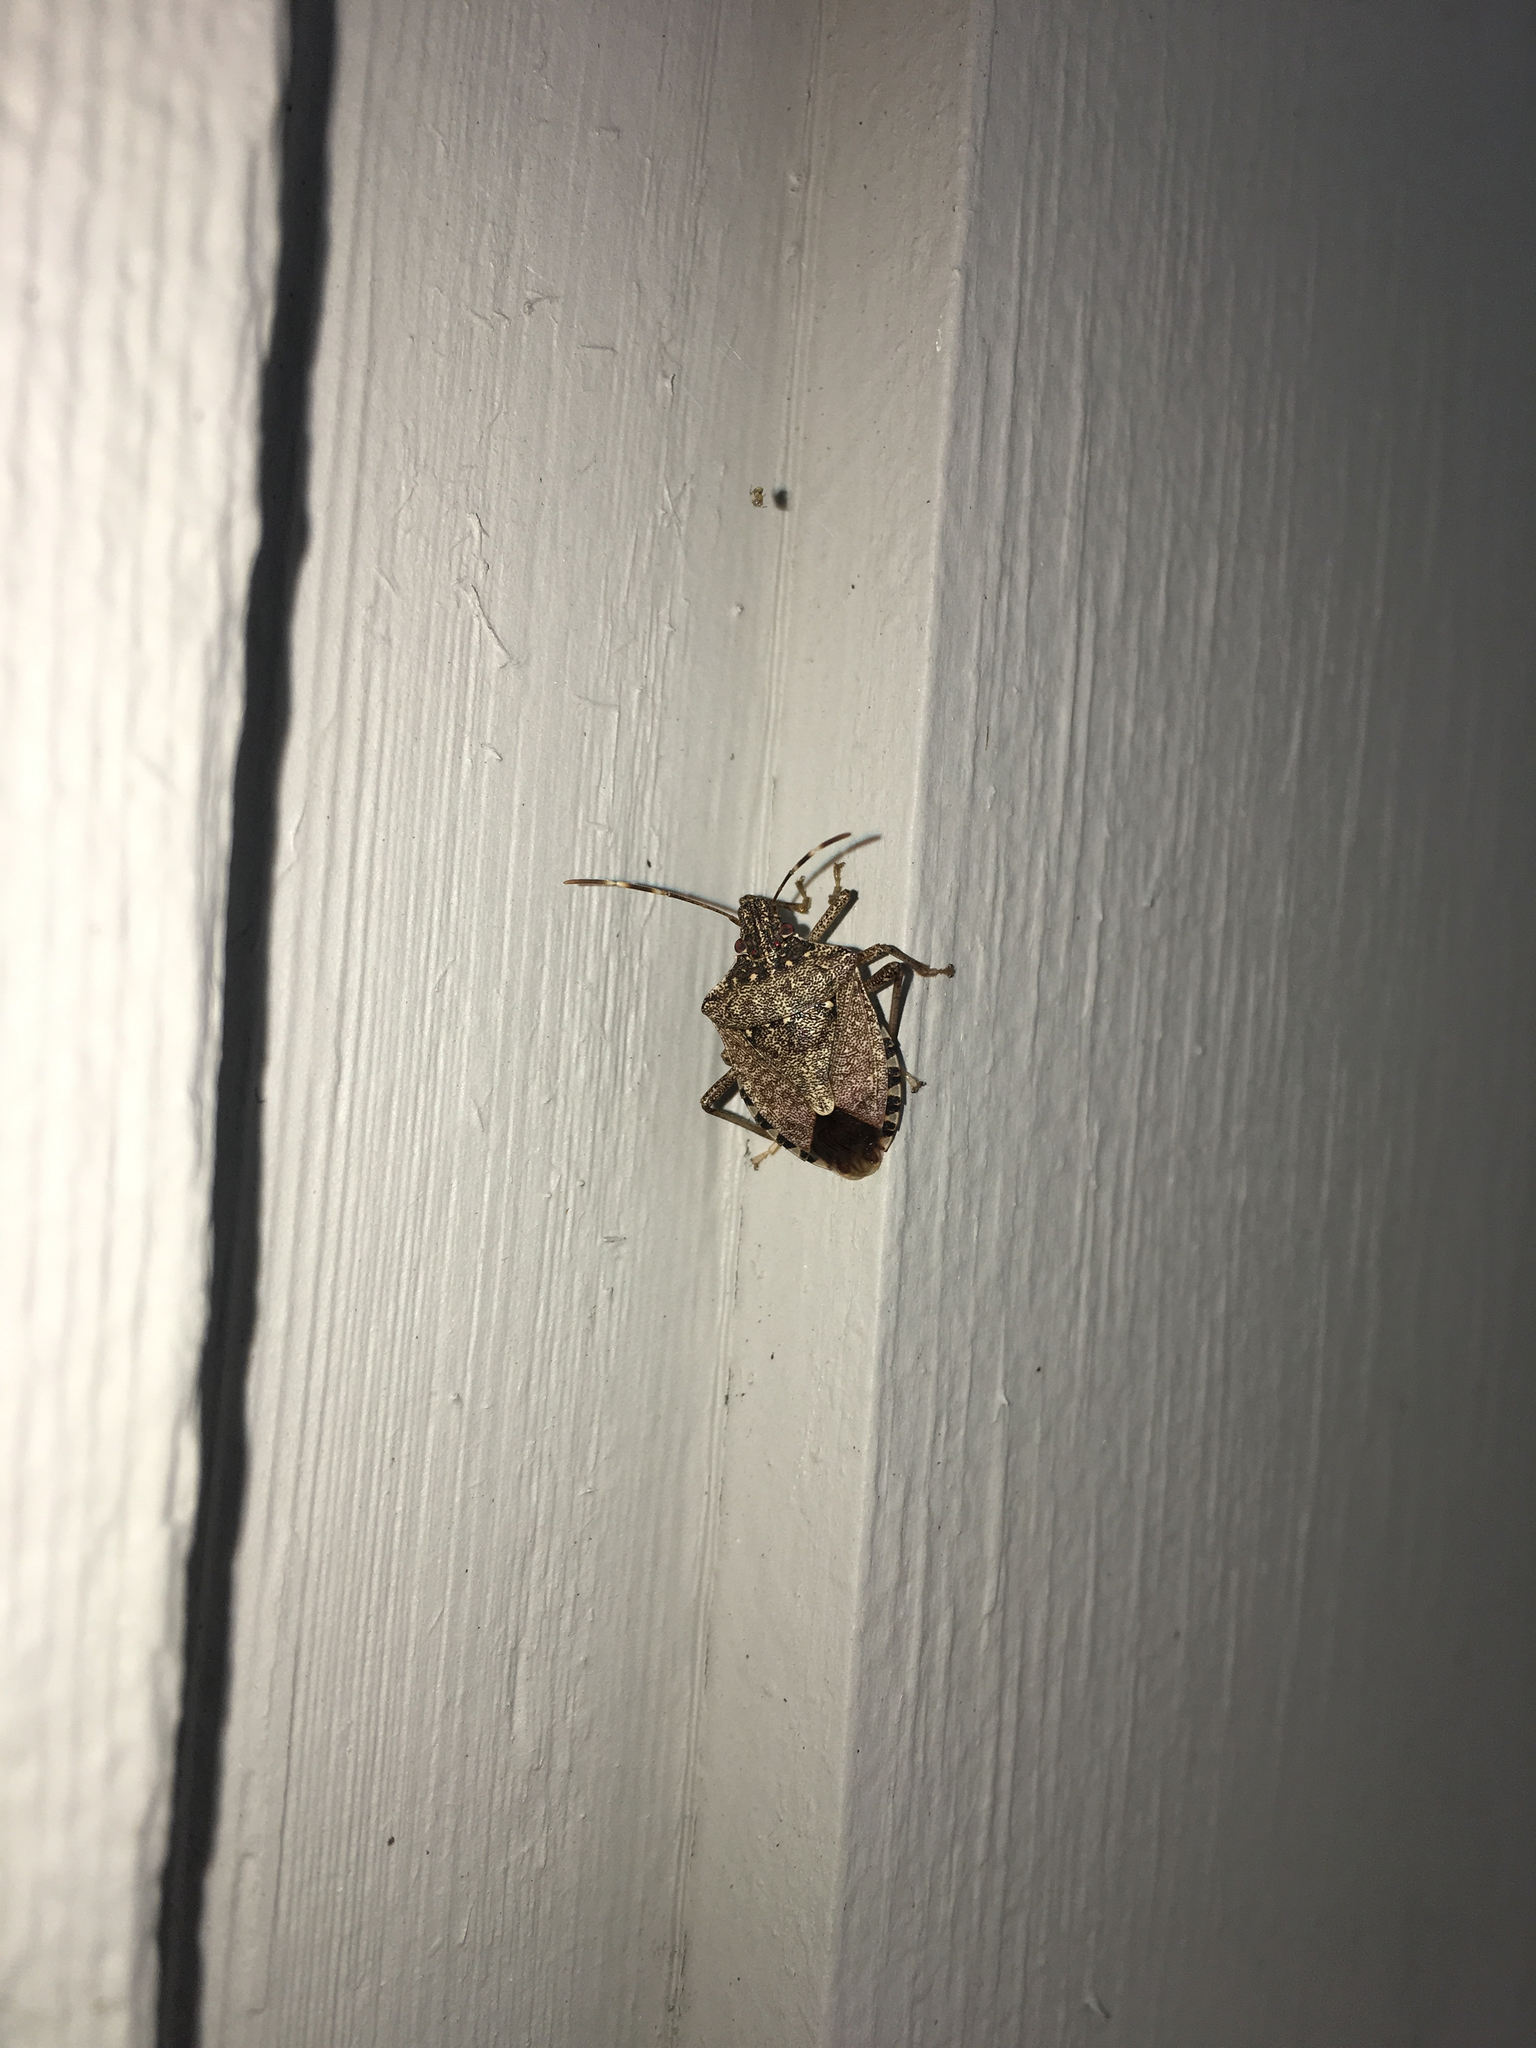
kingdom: Animalia
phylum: Arthropoda
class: Insecta
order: Hemiptera
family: Pentatomidae
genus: Halyomorpha
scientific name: Halyomorpha halys
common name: Brown marmorated stink bug
